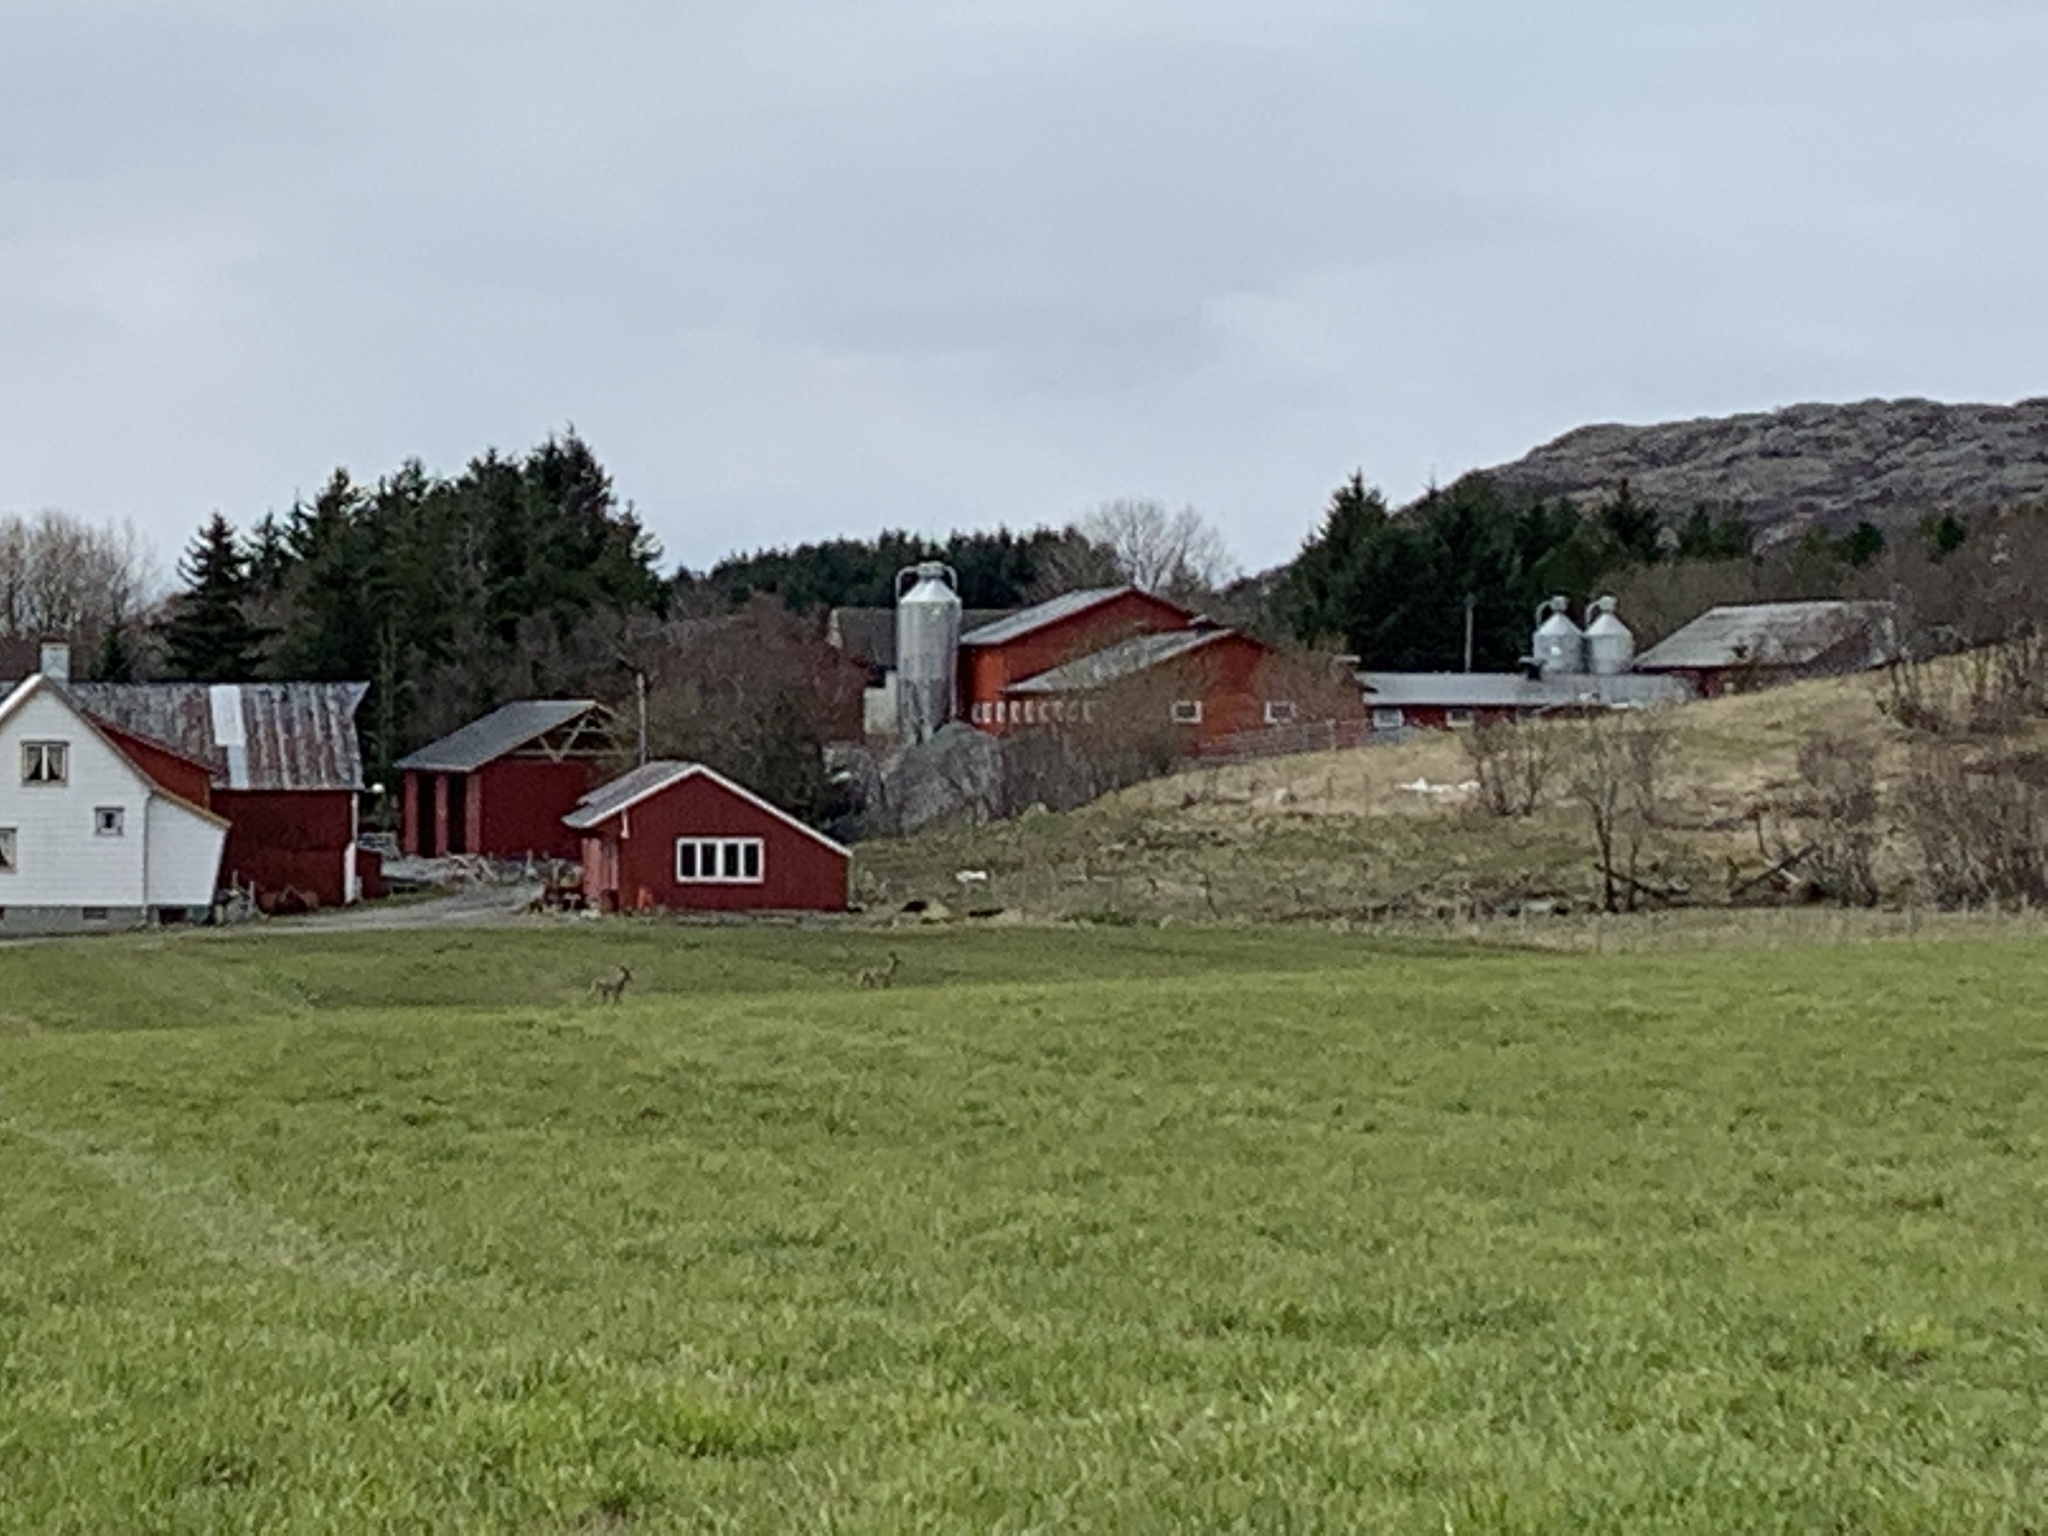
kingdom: Animalia
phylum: Chordata
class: Mammalia
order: Artiodactyla
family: Cervidae
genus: Capreolus
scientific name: Capreolus capreolus
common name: Western roe deer
